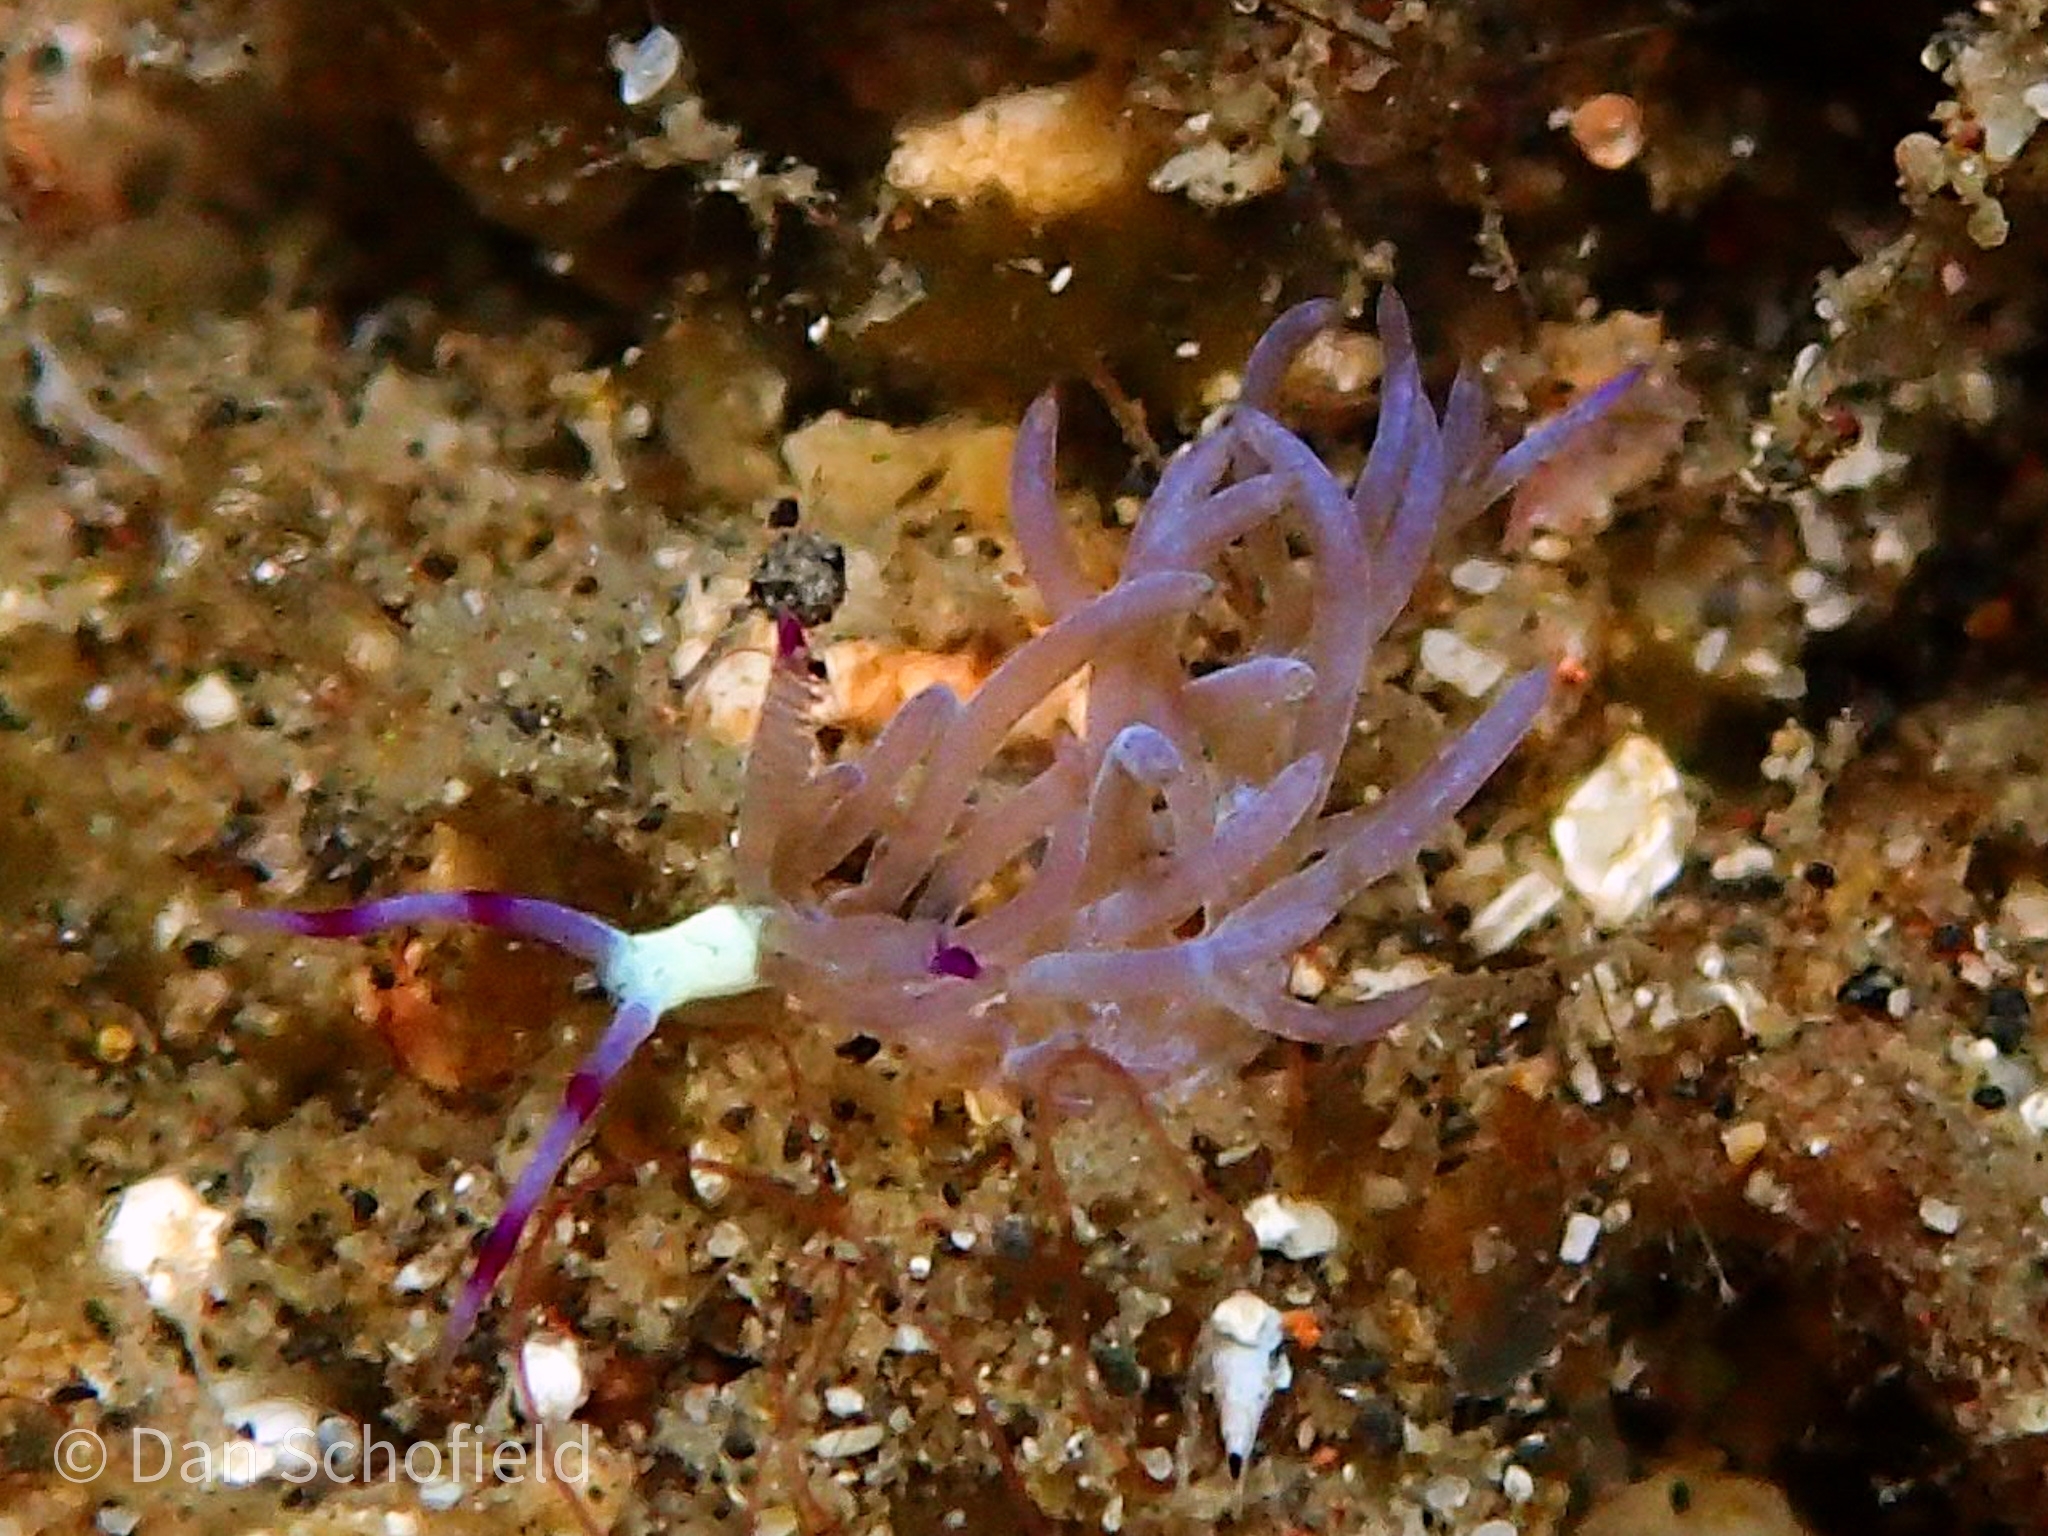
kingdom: Animalia
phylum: Mollusca
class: Gastropoda
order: Nudibranchia
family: Facelinidae
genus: Pteraeolidia
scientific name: Pteraeolidia semperi
